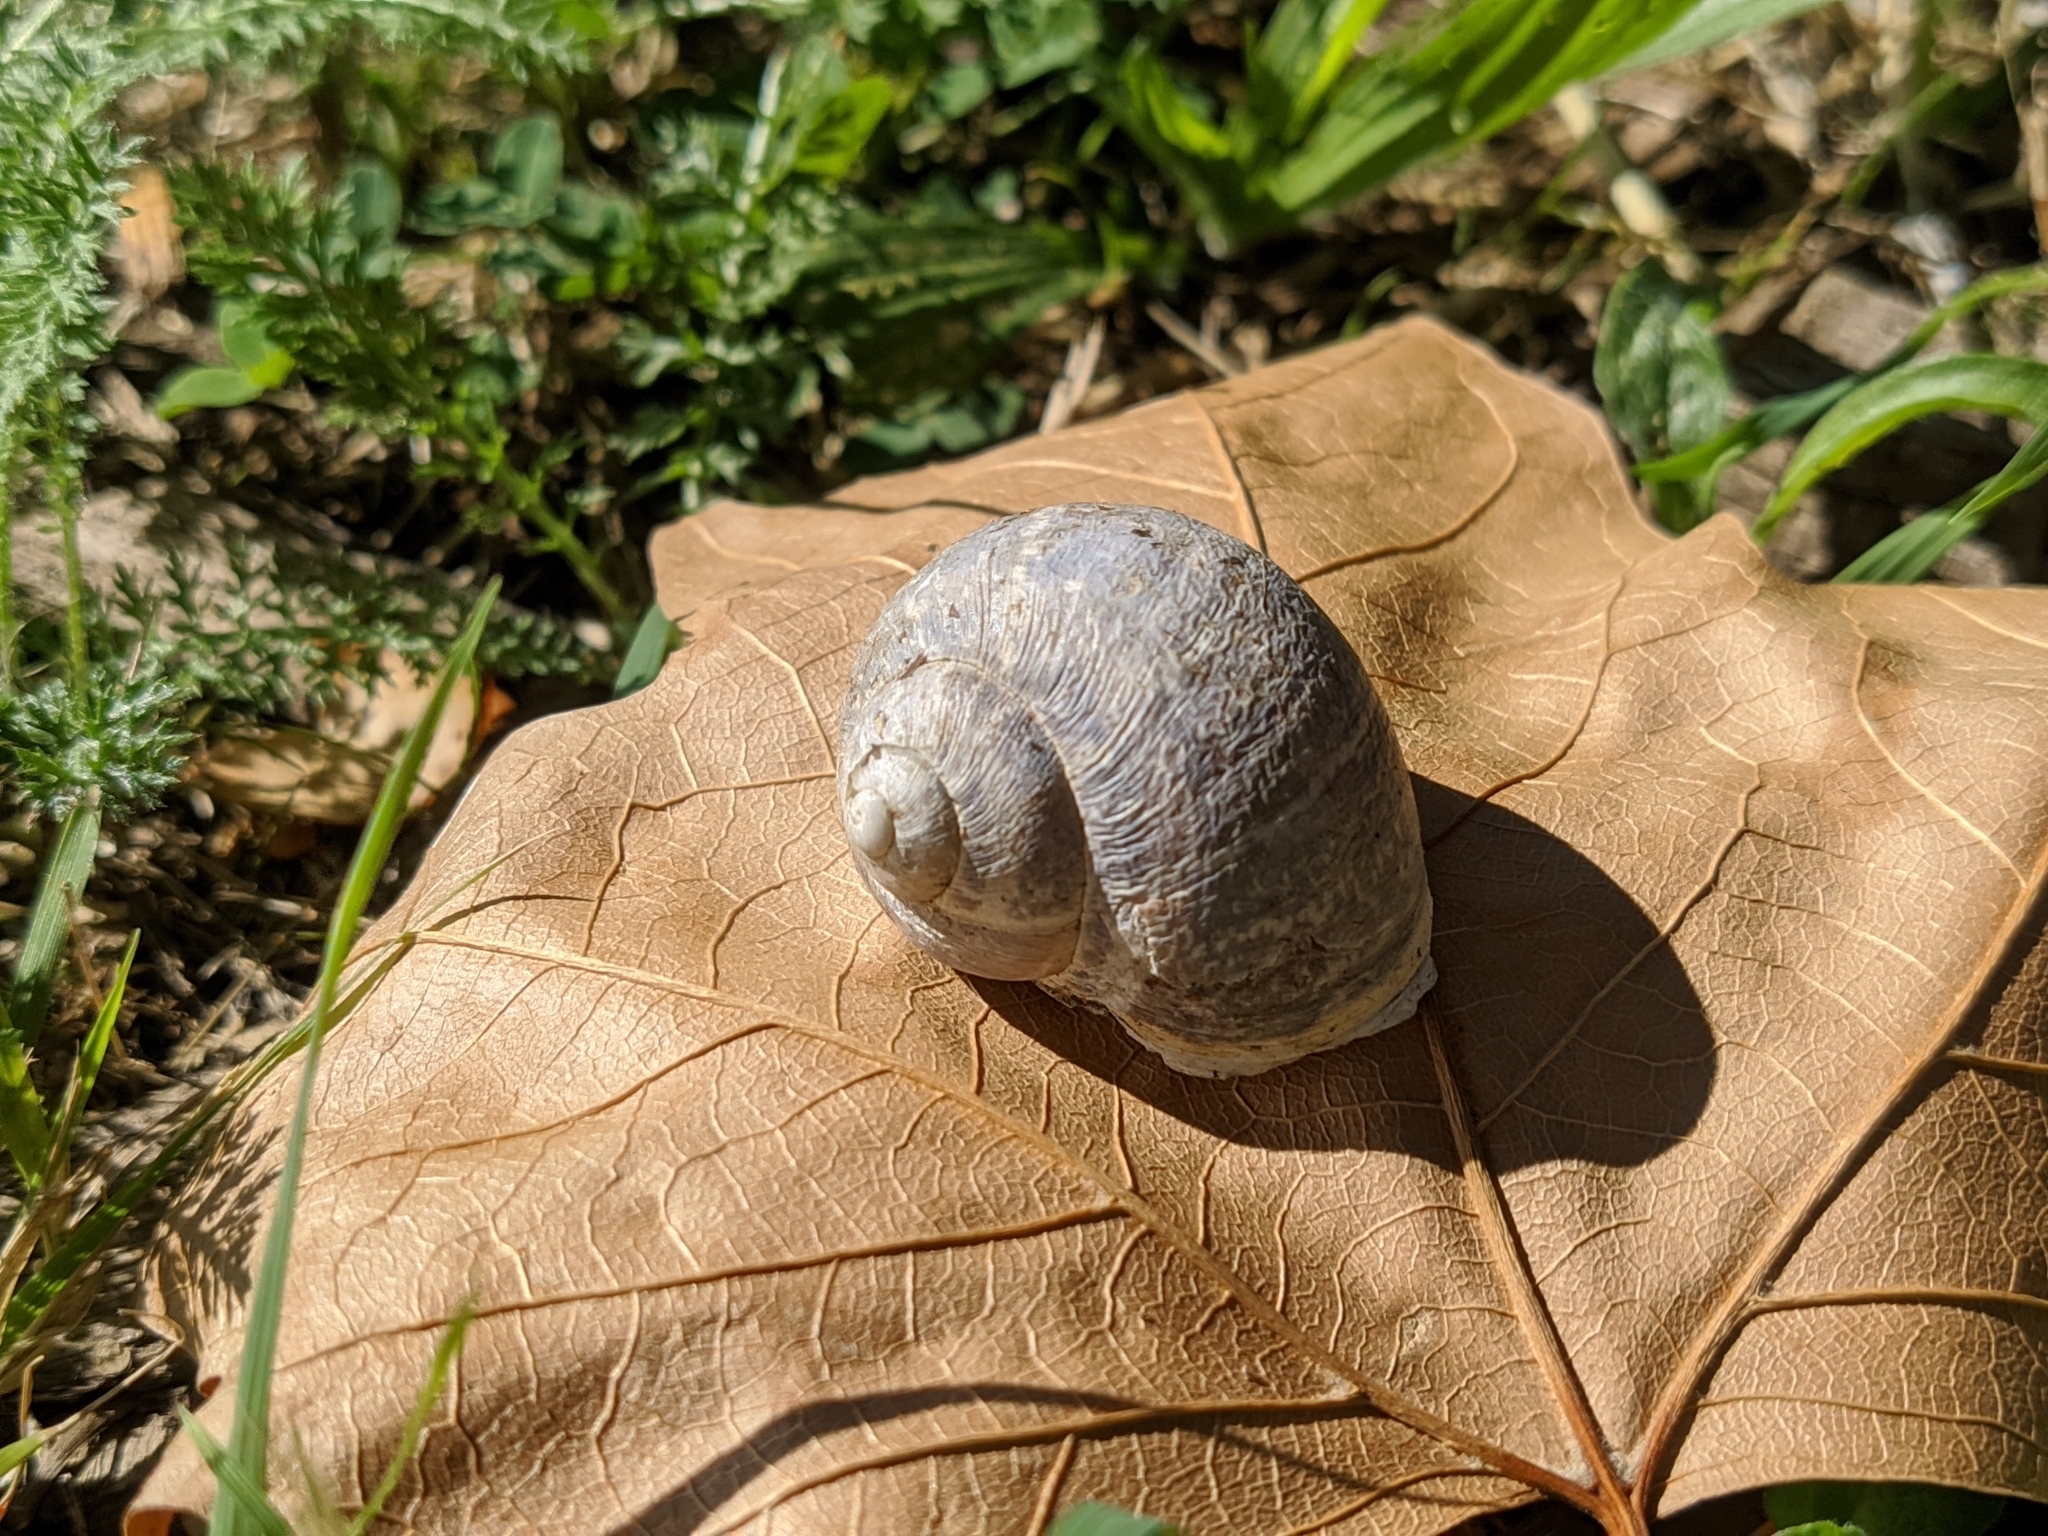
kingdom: Animalia
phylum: Mollusca
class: Gastropoda
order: Stylommatophora
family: Helicidae
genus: Cornu
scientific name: Cornu aspersum
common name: Brown garden snail
